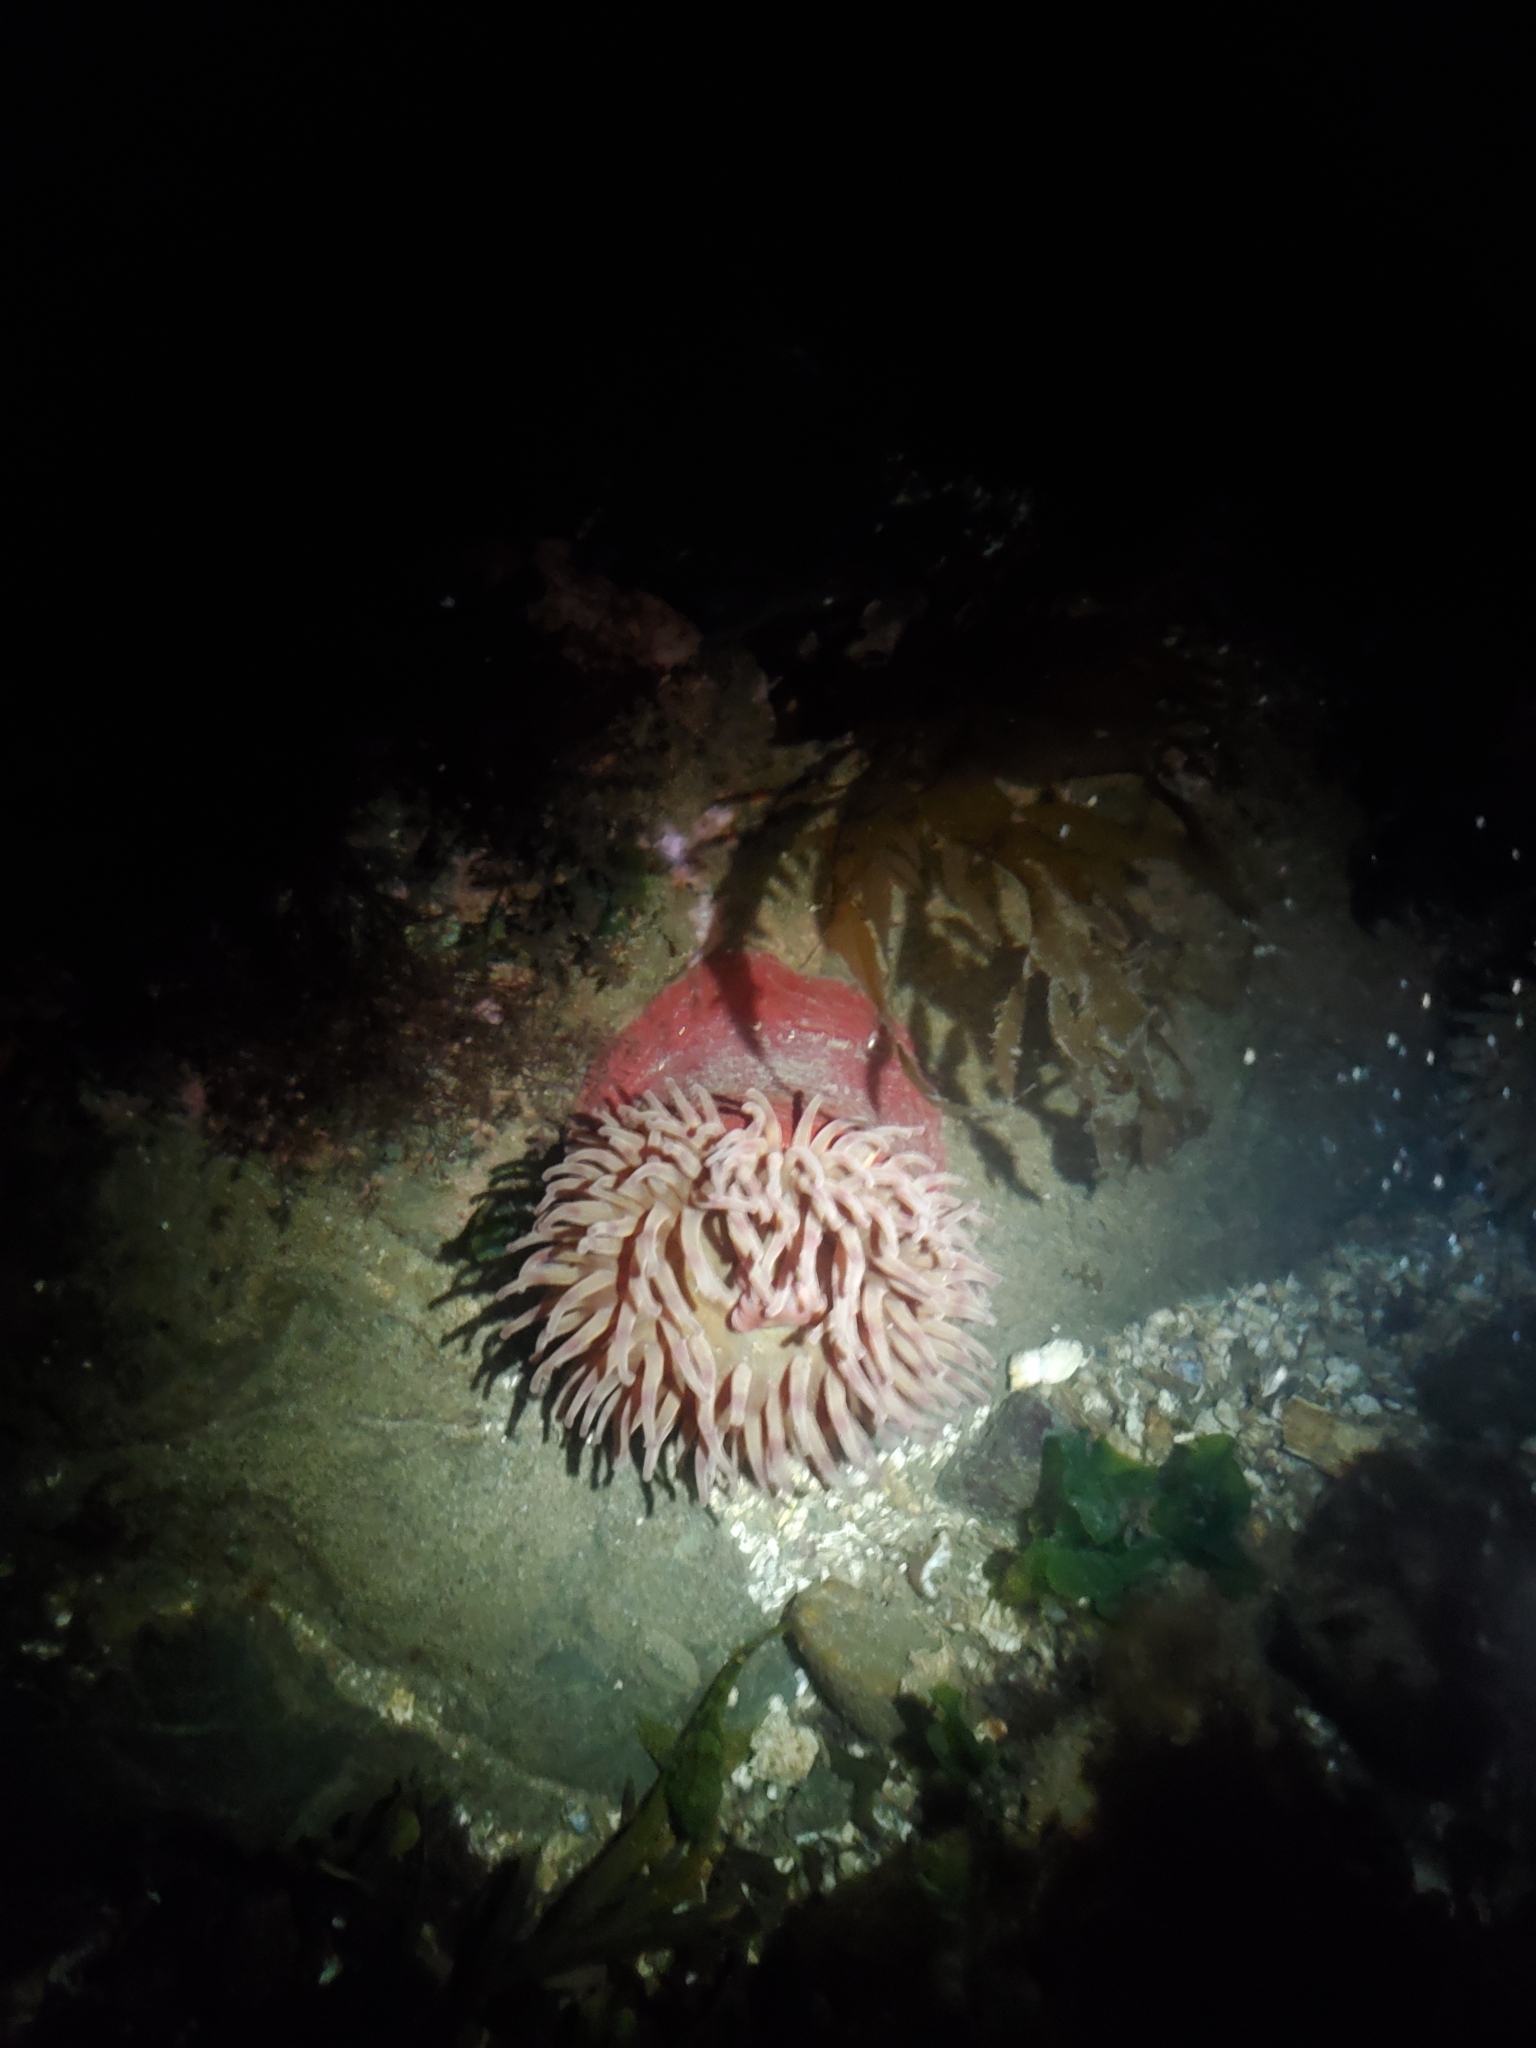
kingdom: Animalia
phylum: Cnidaria
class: Anthozoa
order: Actiniaria
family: Actiniidae
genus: Urticina
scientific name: Urticina grebelnyi
